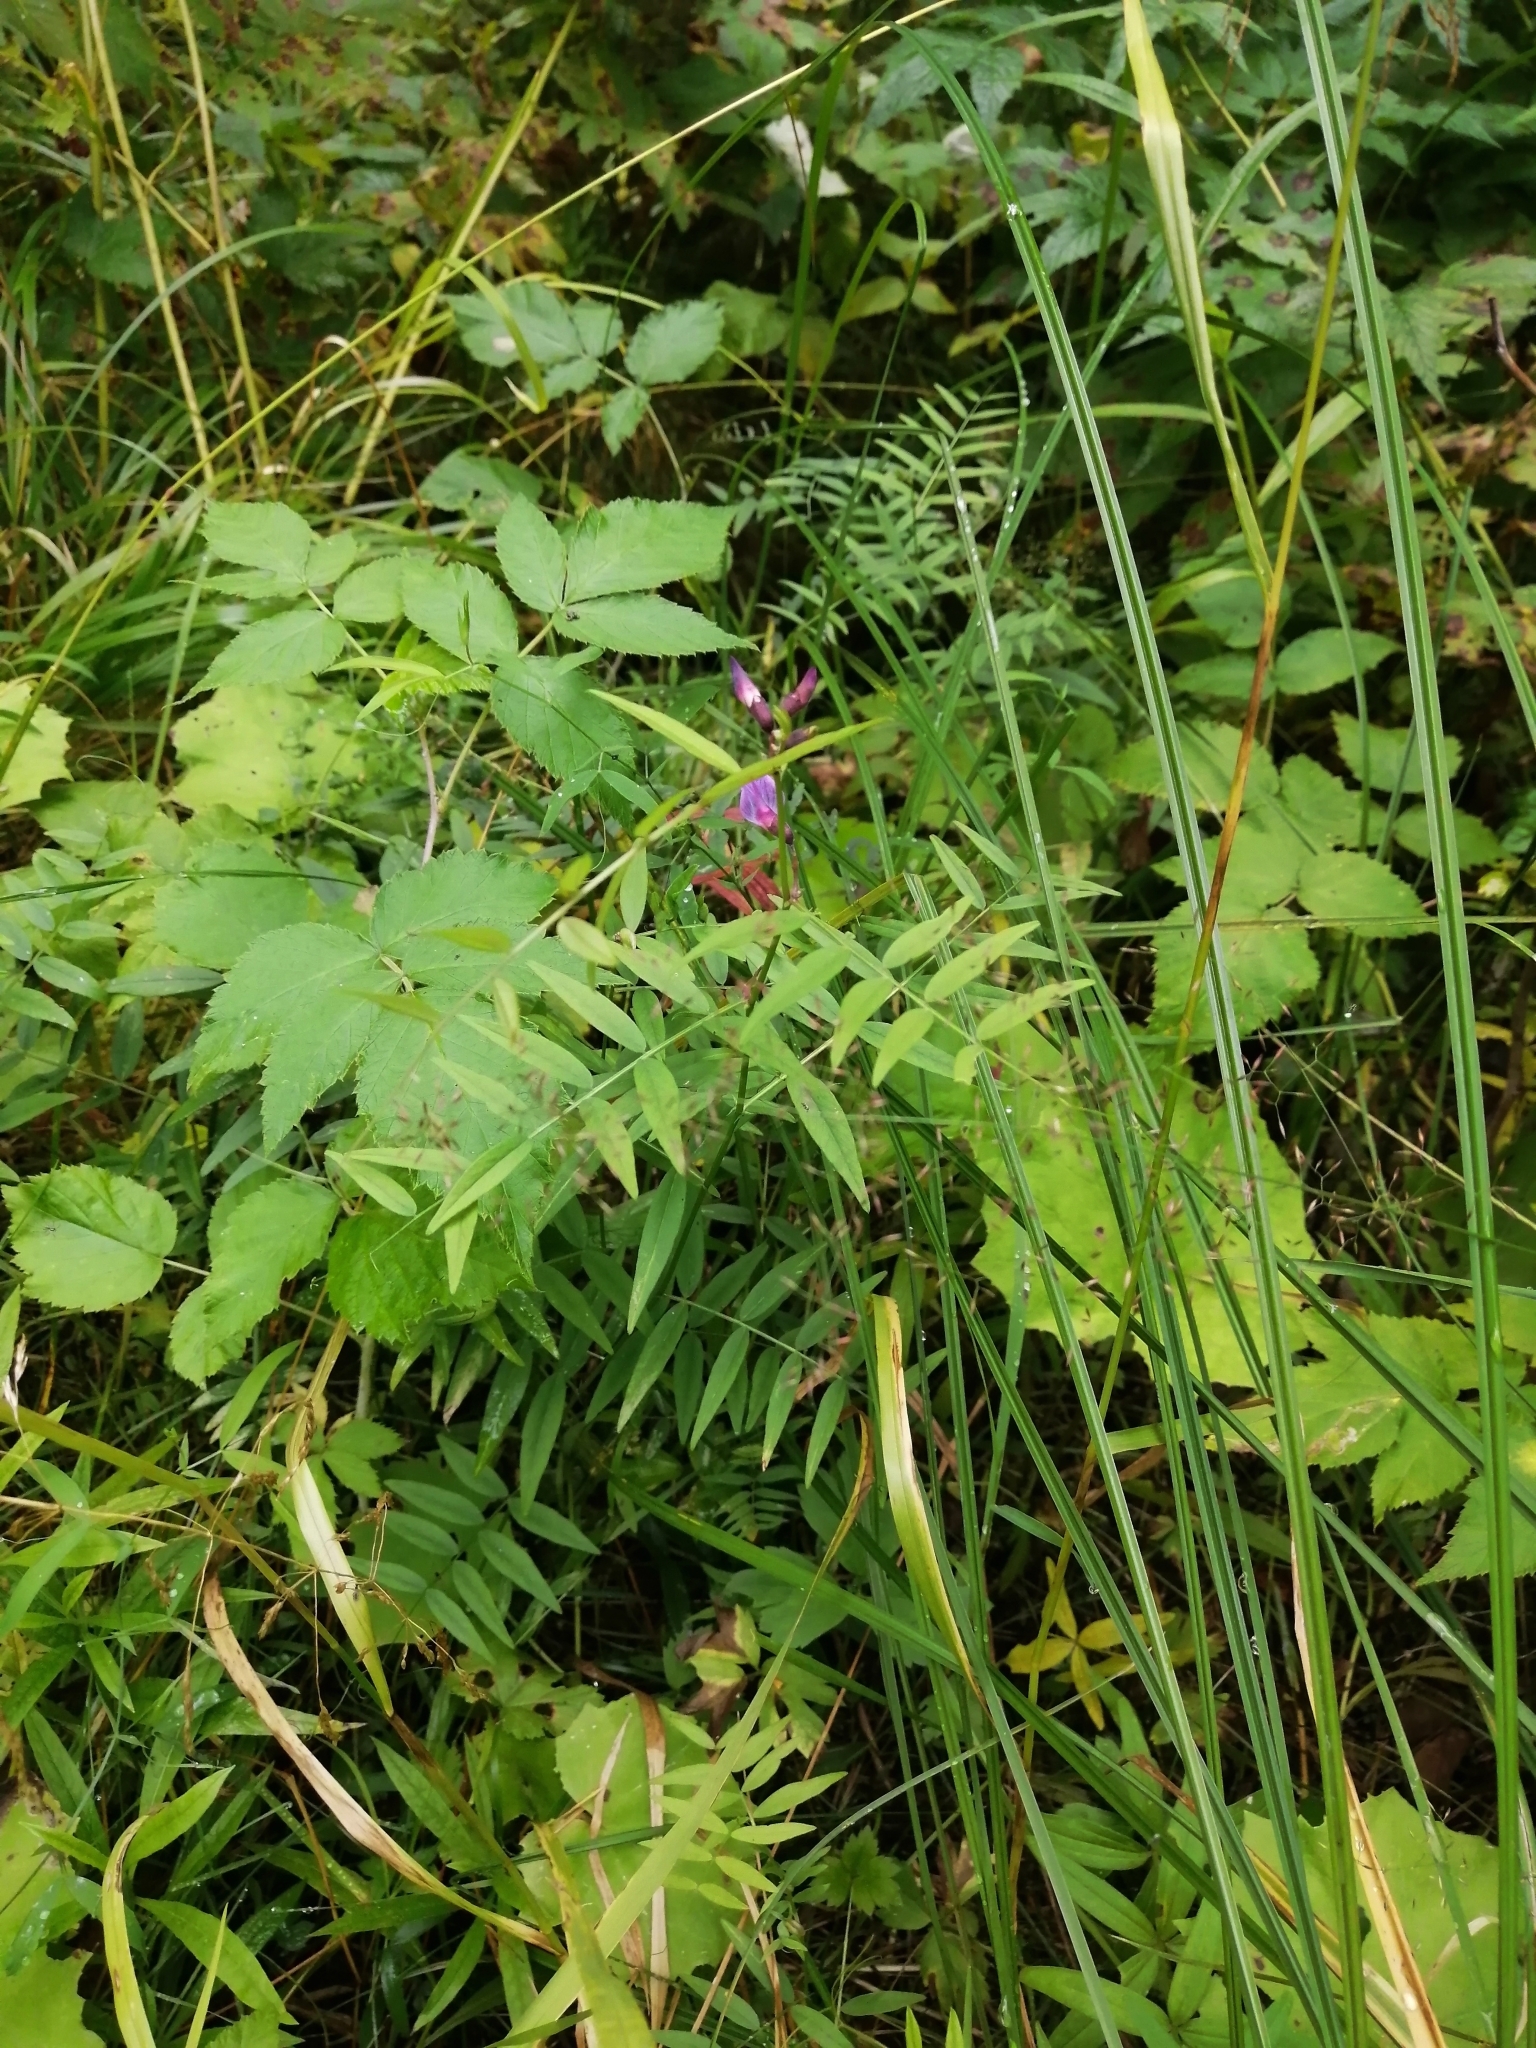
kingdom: Plantae
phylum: Tracheophyta
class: Magnoliopsida
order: Fabales
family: Fabaceae
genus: Vicia
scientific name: Vicia sepium
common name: Bush vetch
